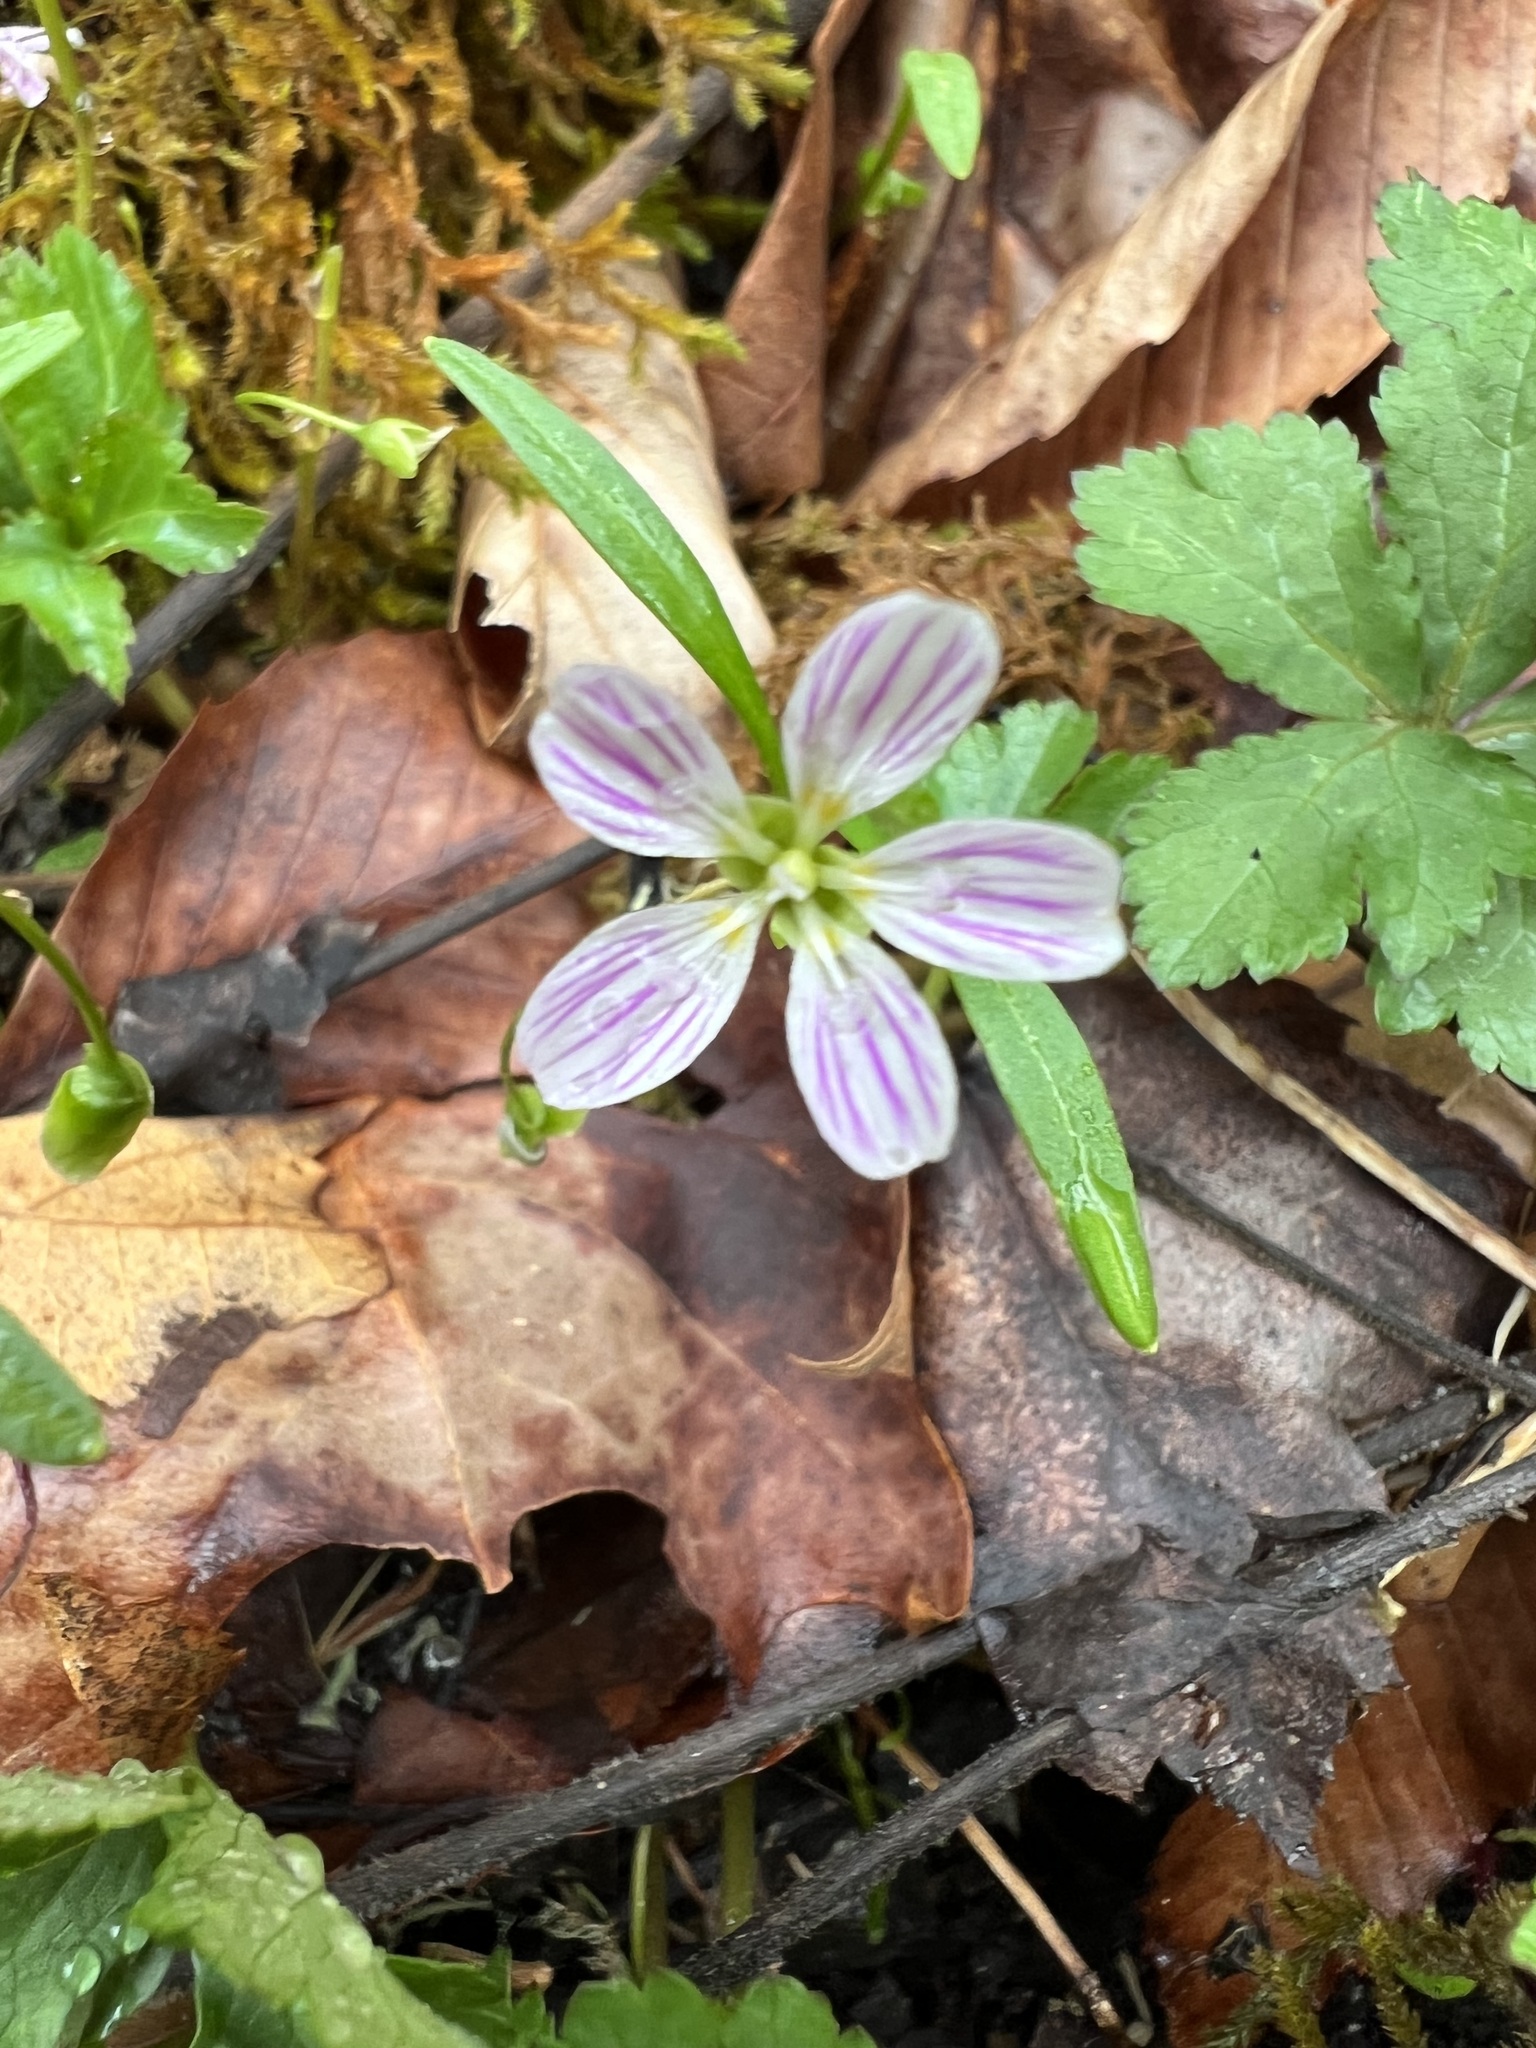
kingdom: Plantae
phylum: Tracheophyta
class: Magnoliopsida
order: Caryophyllales
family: Montiaceae
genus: Claytonia
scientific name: Claytonia caroliniana
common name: Carolina spring beauty
